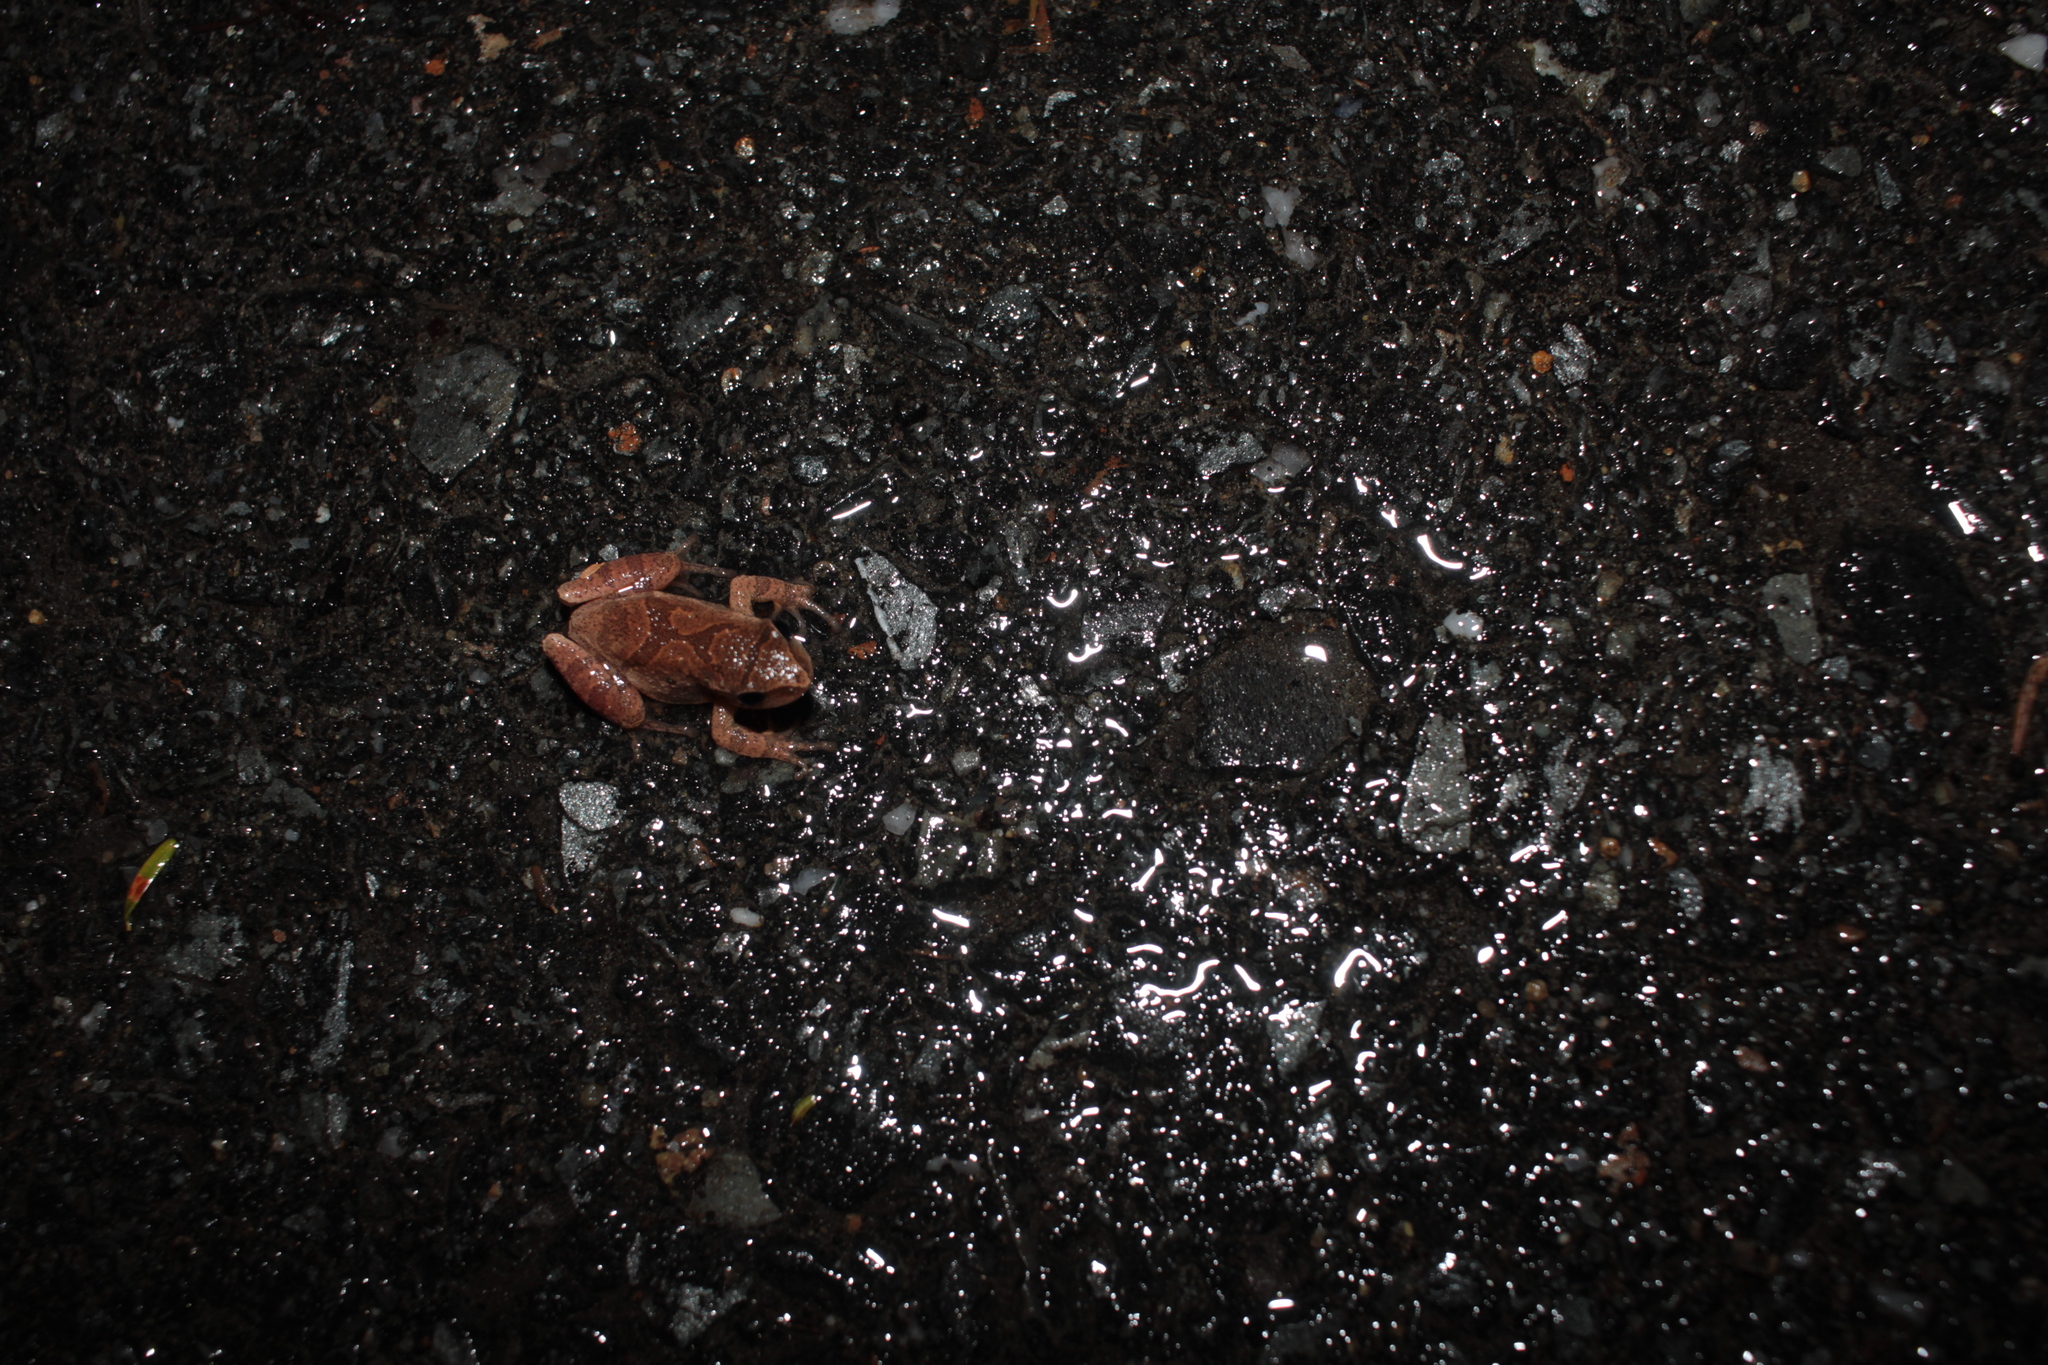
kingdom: Animalia
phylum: Chordata
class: Amphibia
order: Anura
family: Hylidae
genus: Pseudacris
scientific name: Pseudacris crucifer
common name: Spring peeper
